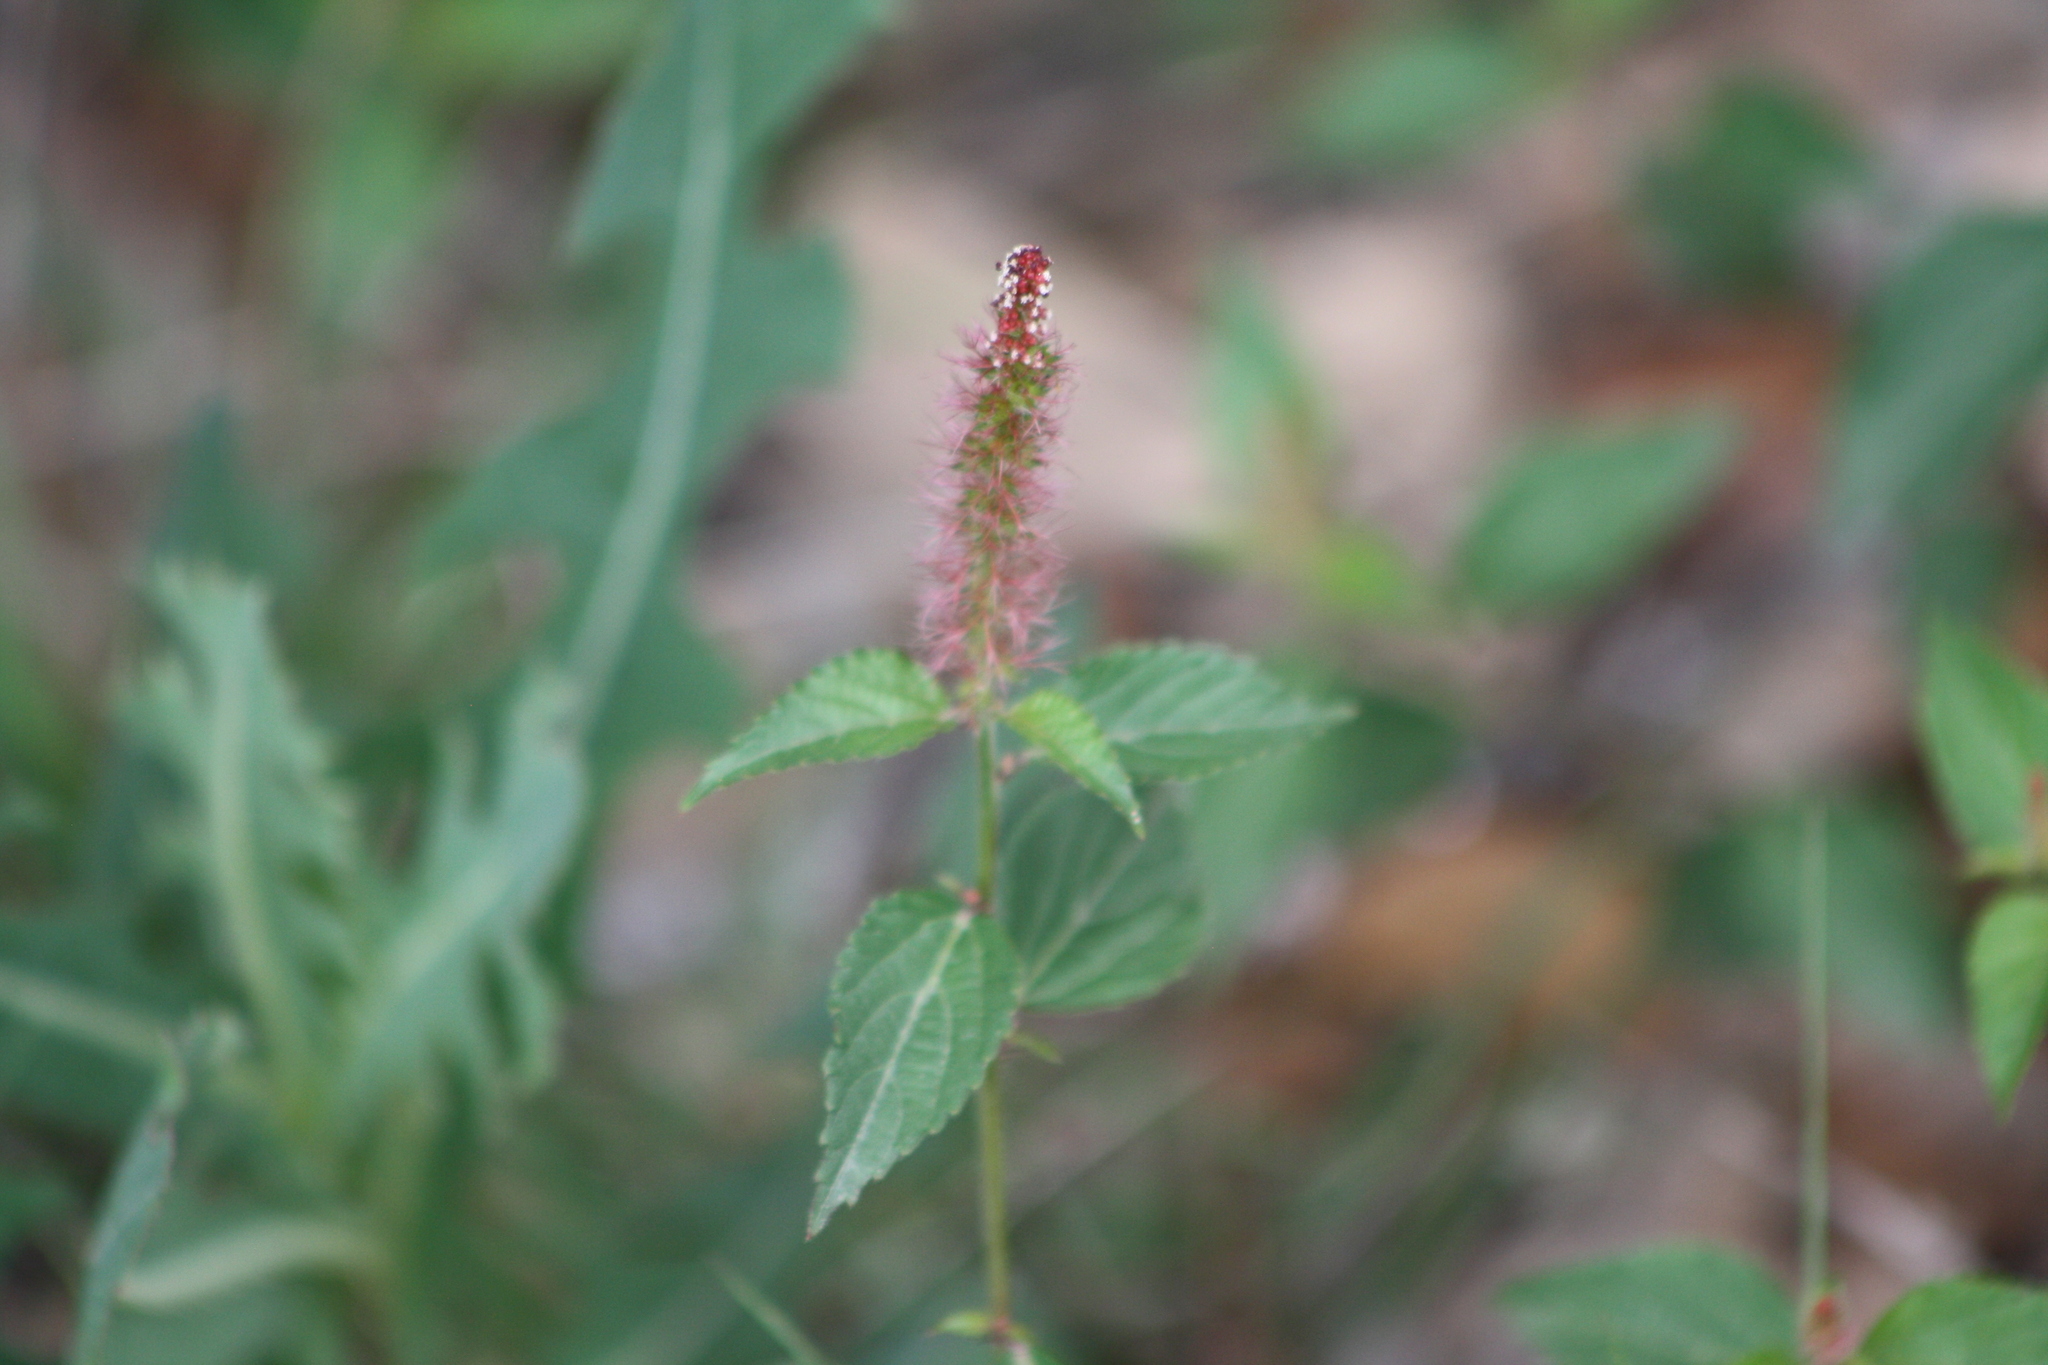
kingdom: Plantae
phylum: Tracheophyta
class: Magnoliopsida
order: Malpighiales
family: Euphorbiaceae
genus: Acalypha
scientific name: Acalypha phleoides
